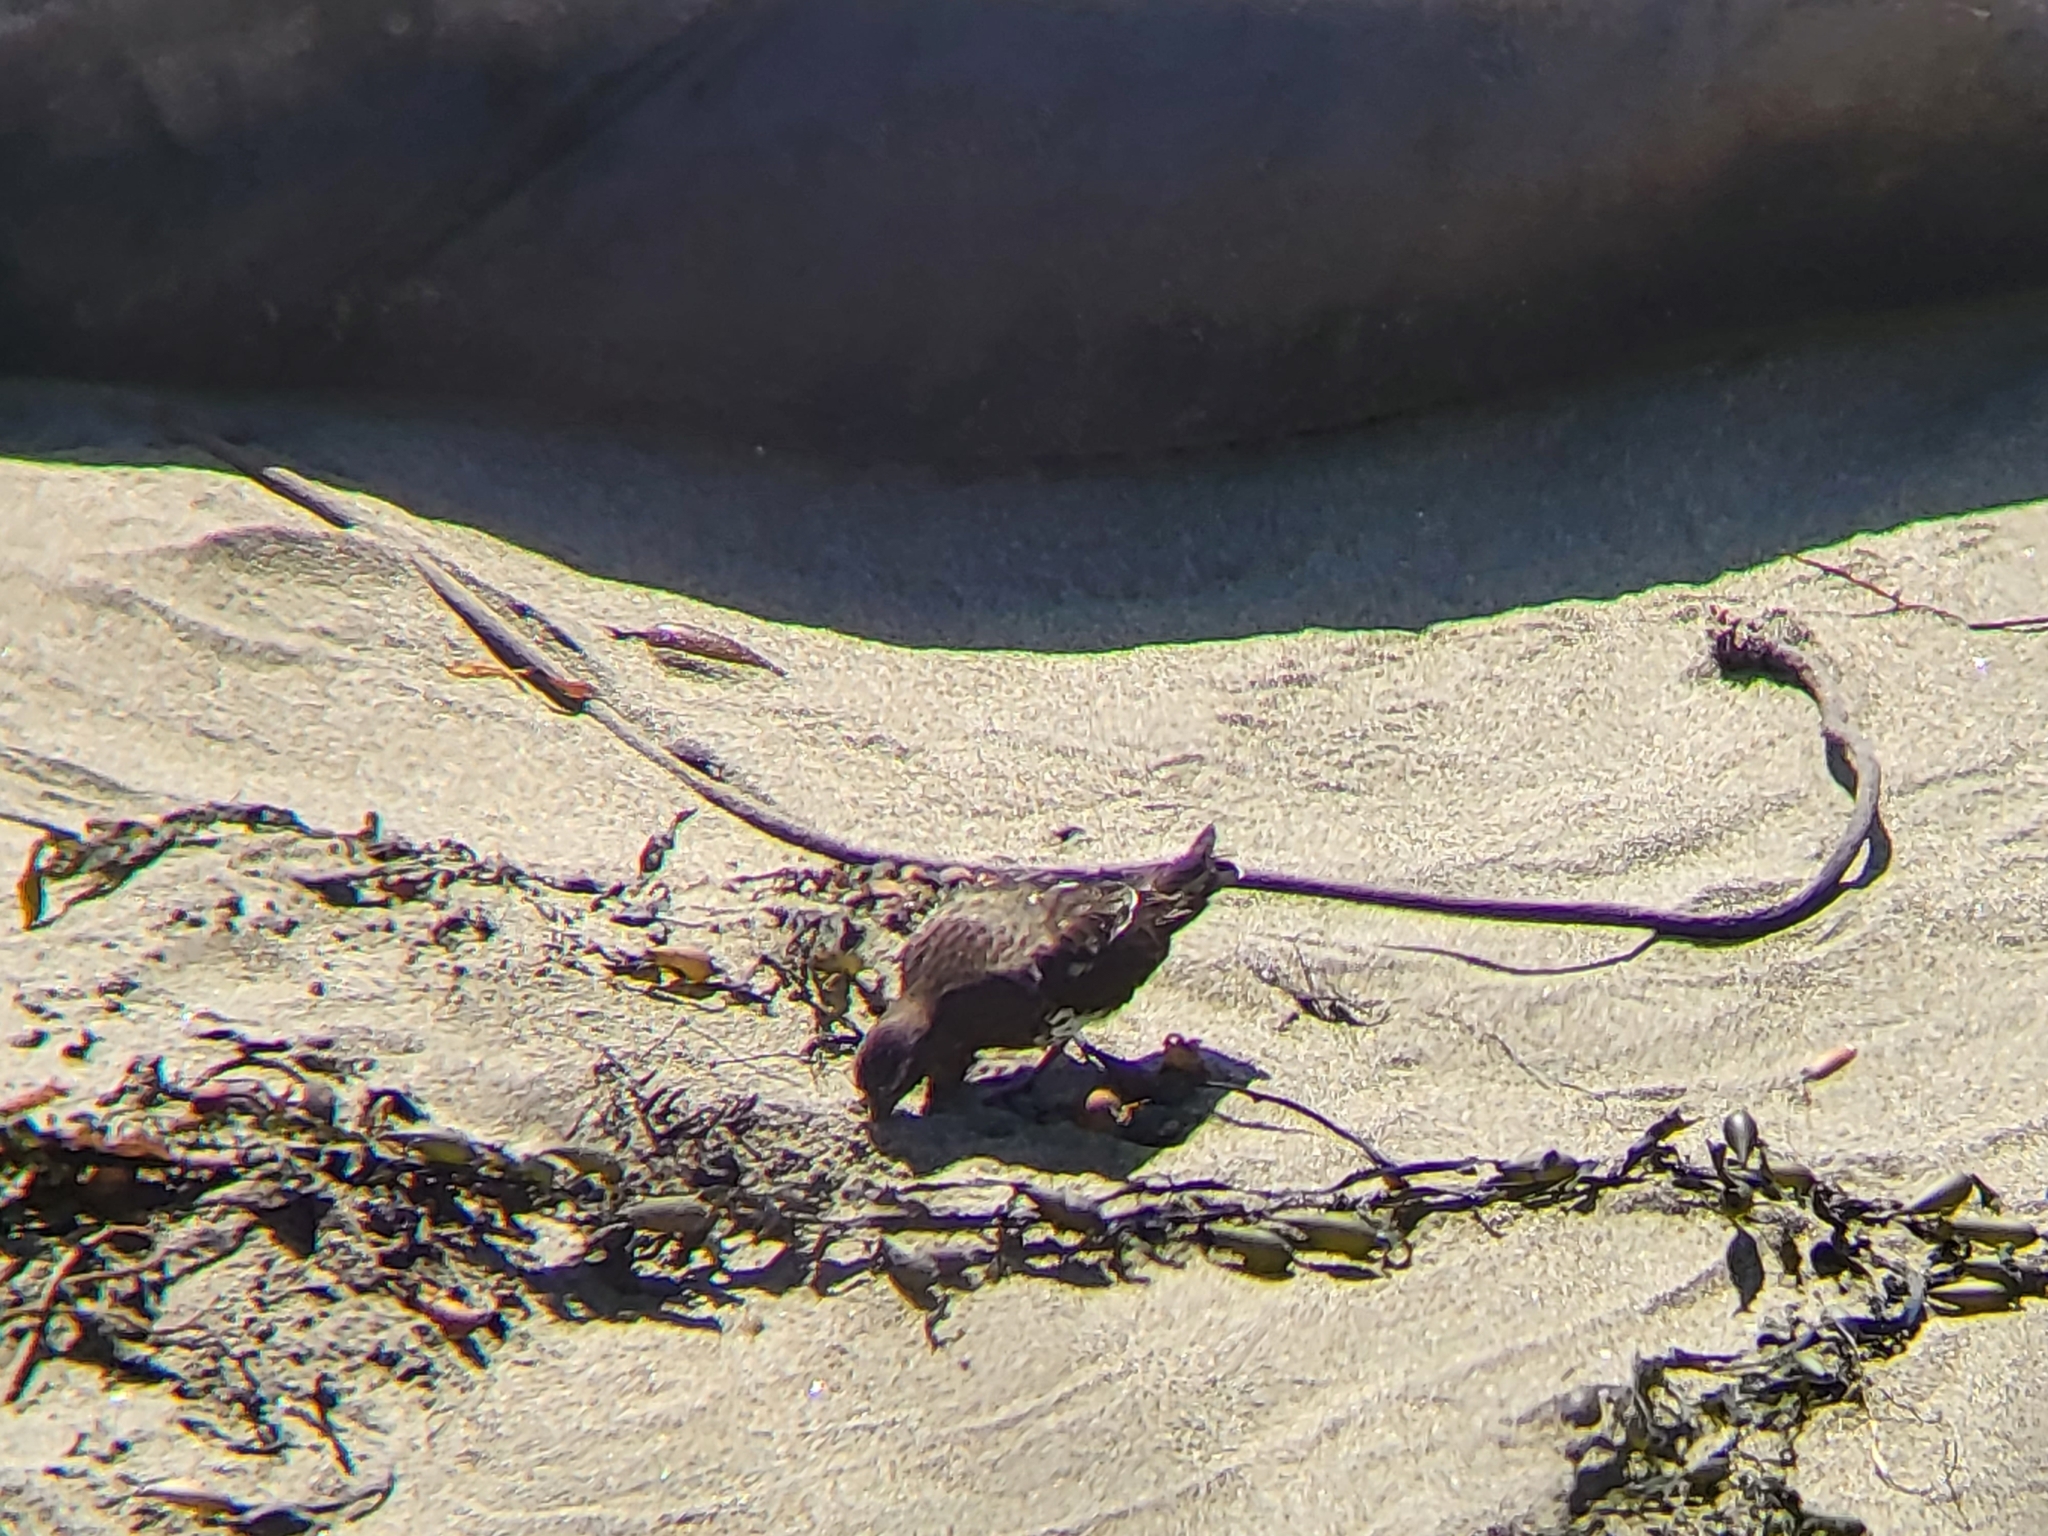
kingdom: Animalia
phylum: Chordata
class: Aves
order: Charadriiformes
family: Scolopacidae
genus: Arenaria
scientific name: Arenaria melanocephala
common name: Black turnstone
